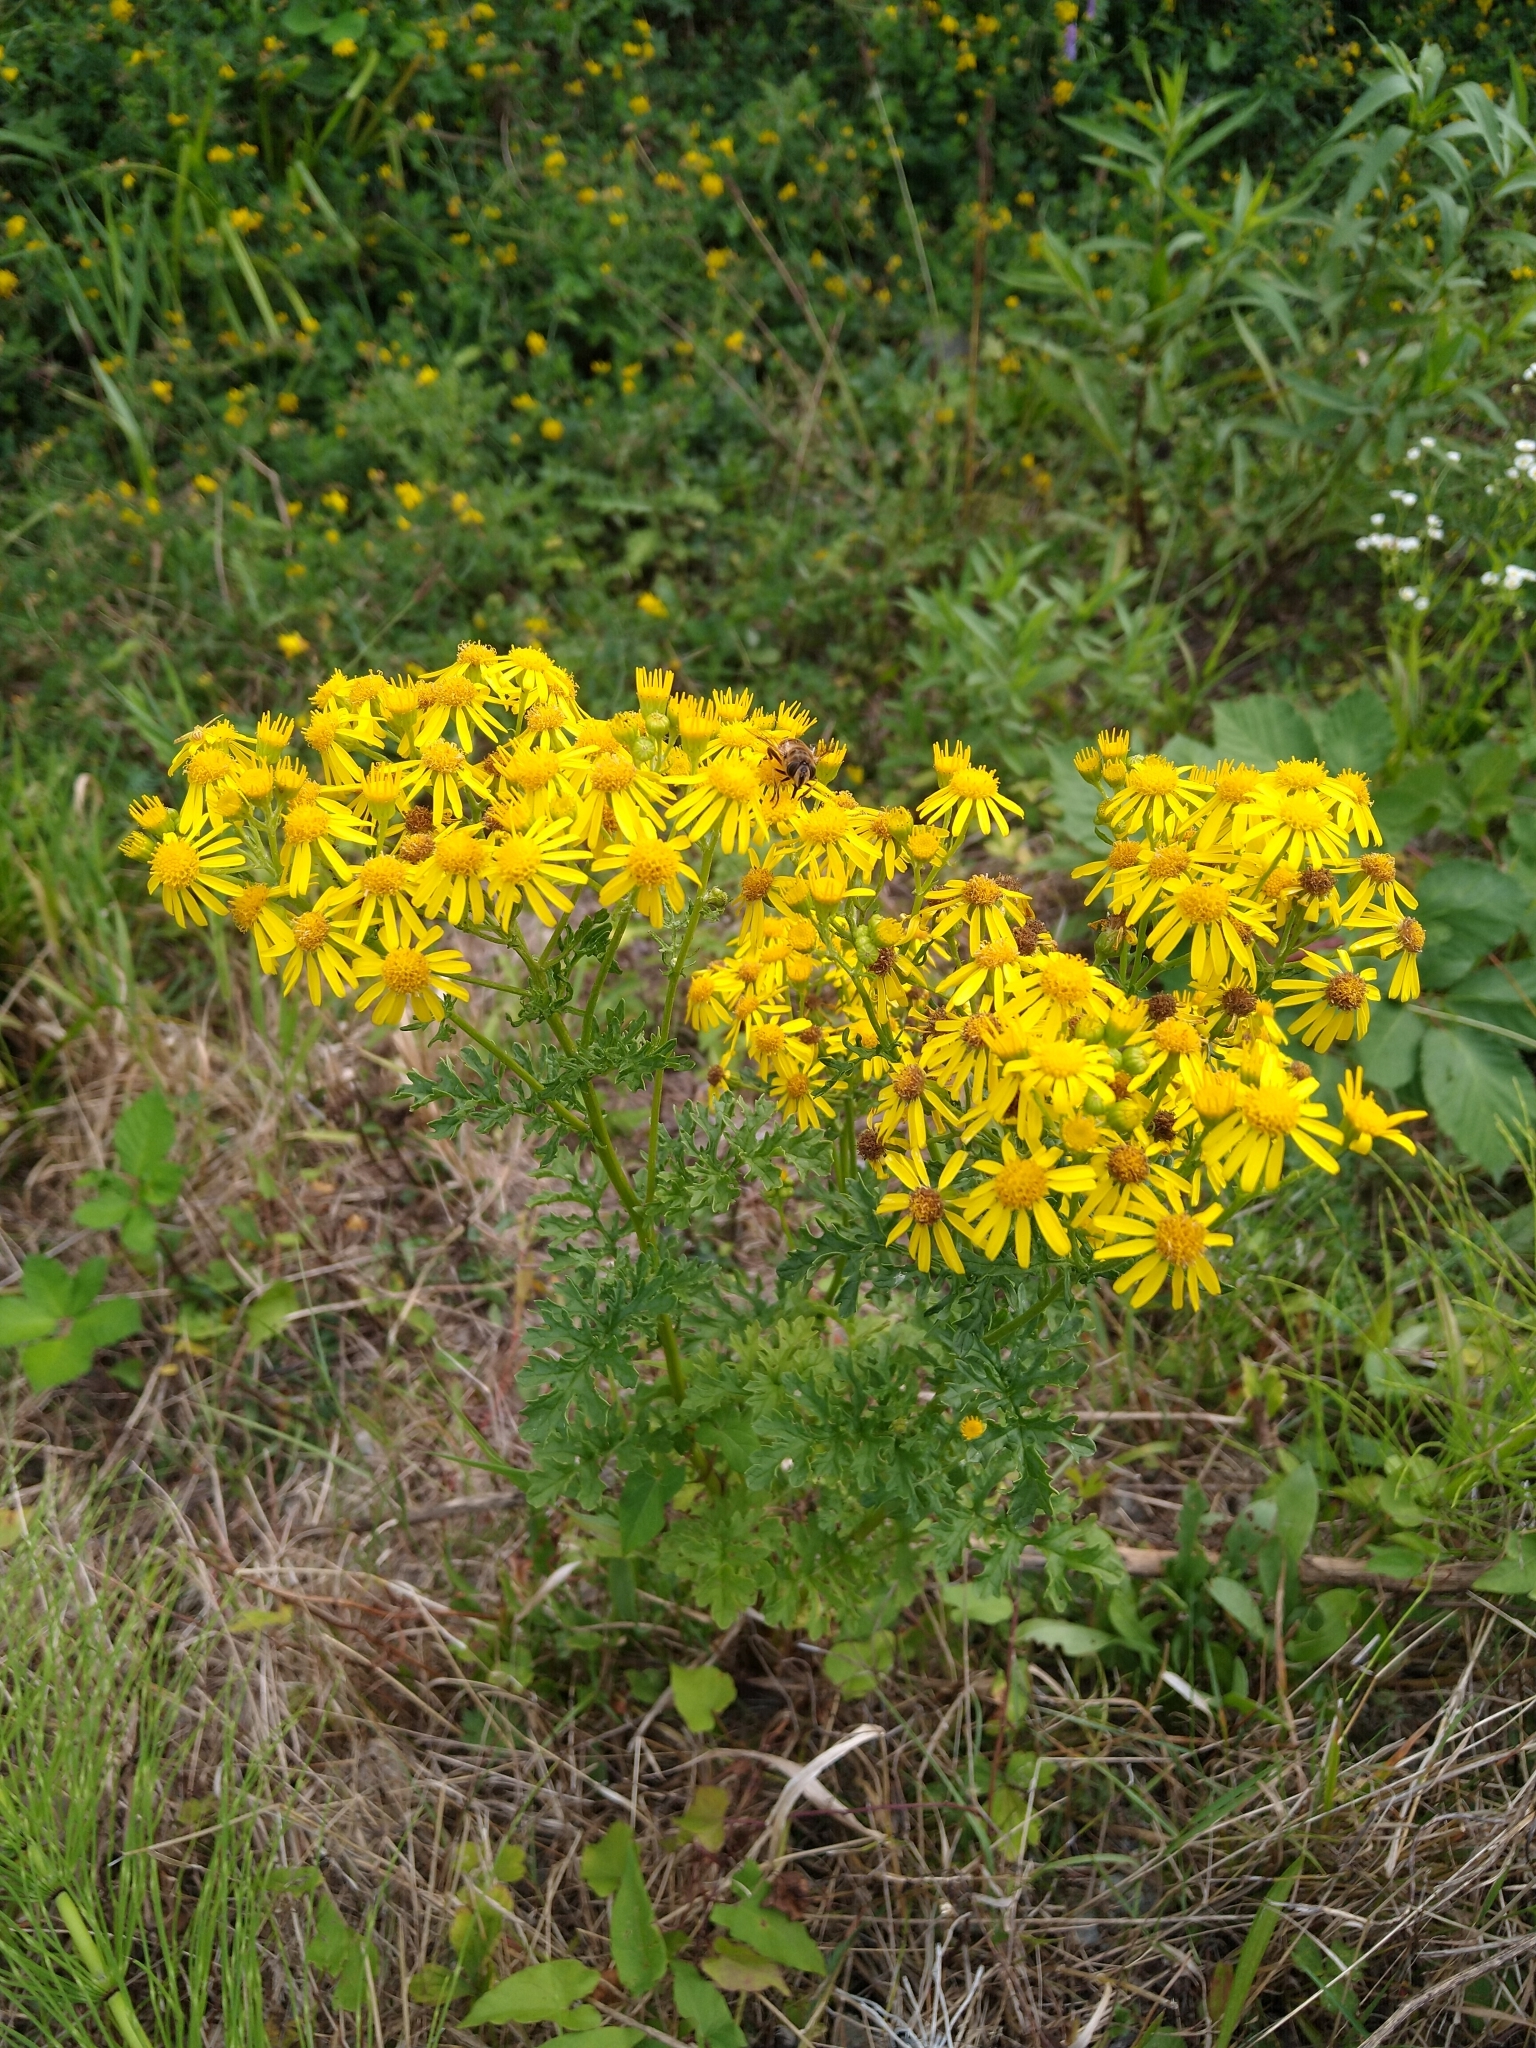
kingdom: Plantae
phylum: Tracheophyta
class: Magnoliopsida
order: Asterales
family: Asteraceae
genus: Jacobaea
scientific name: Jacobaea vulgaris
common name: Stinking willie
